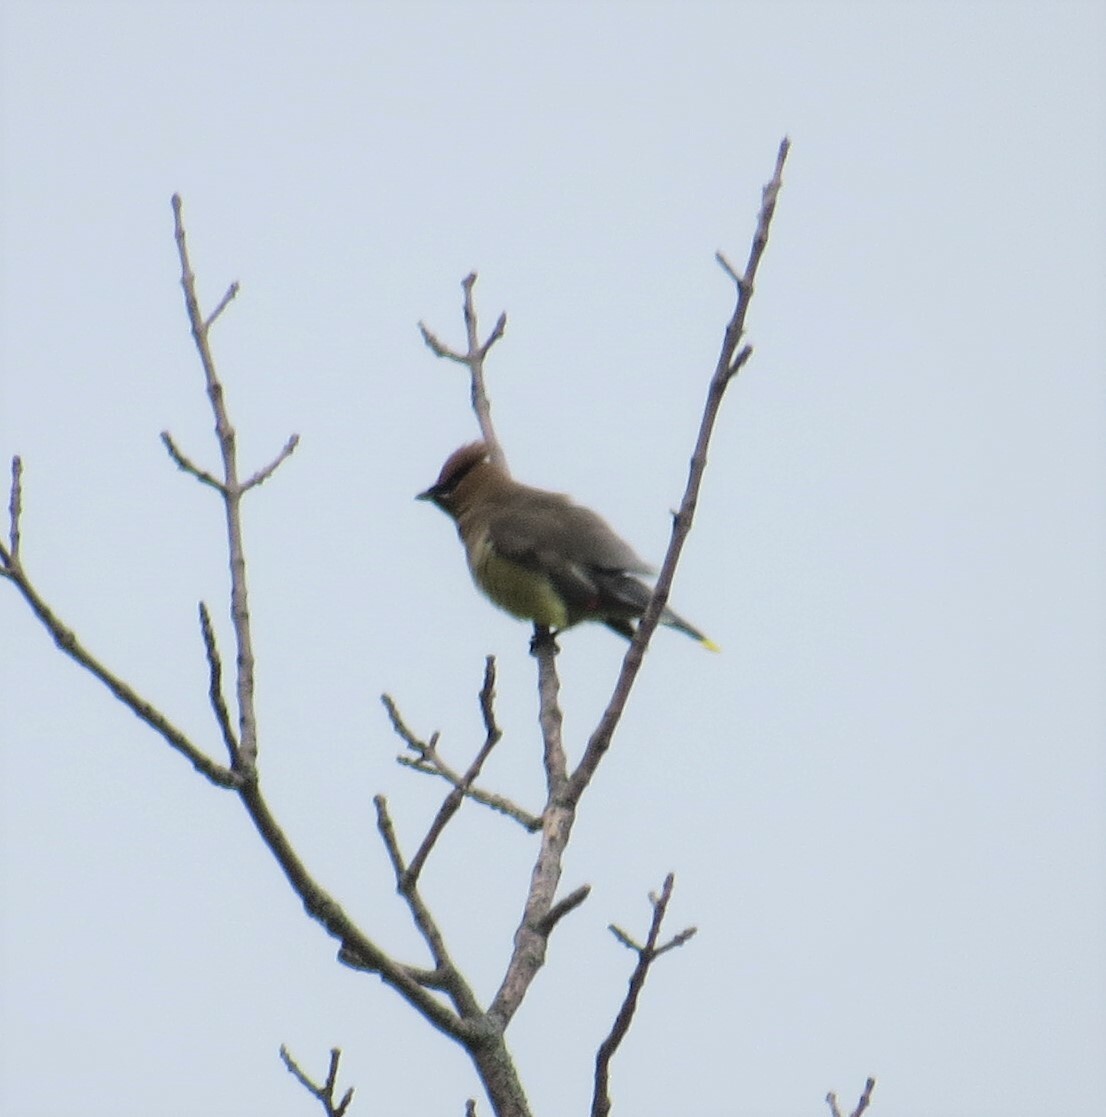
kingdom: Animalia
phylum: Chordata
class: Aves
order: Passeriformes
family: Bombycillidae
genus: Bombycilla
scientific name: Bombycilla cedrorum
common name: Cedar waxwing
